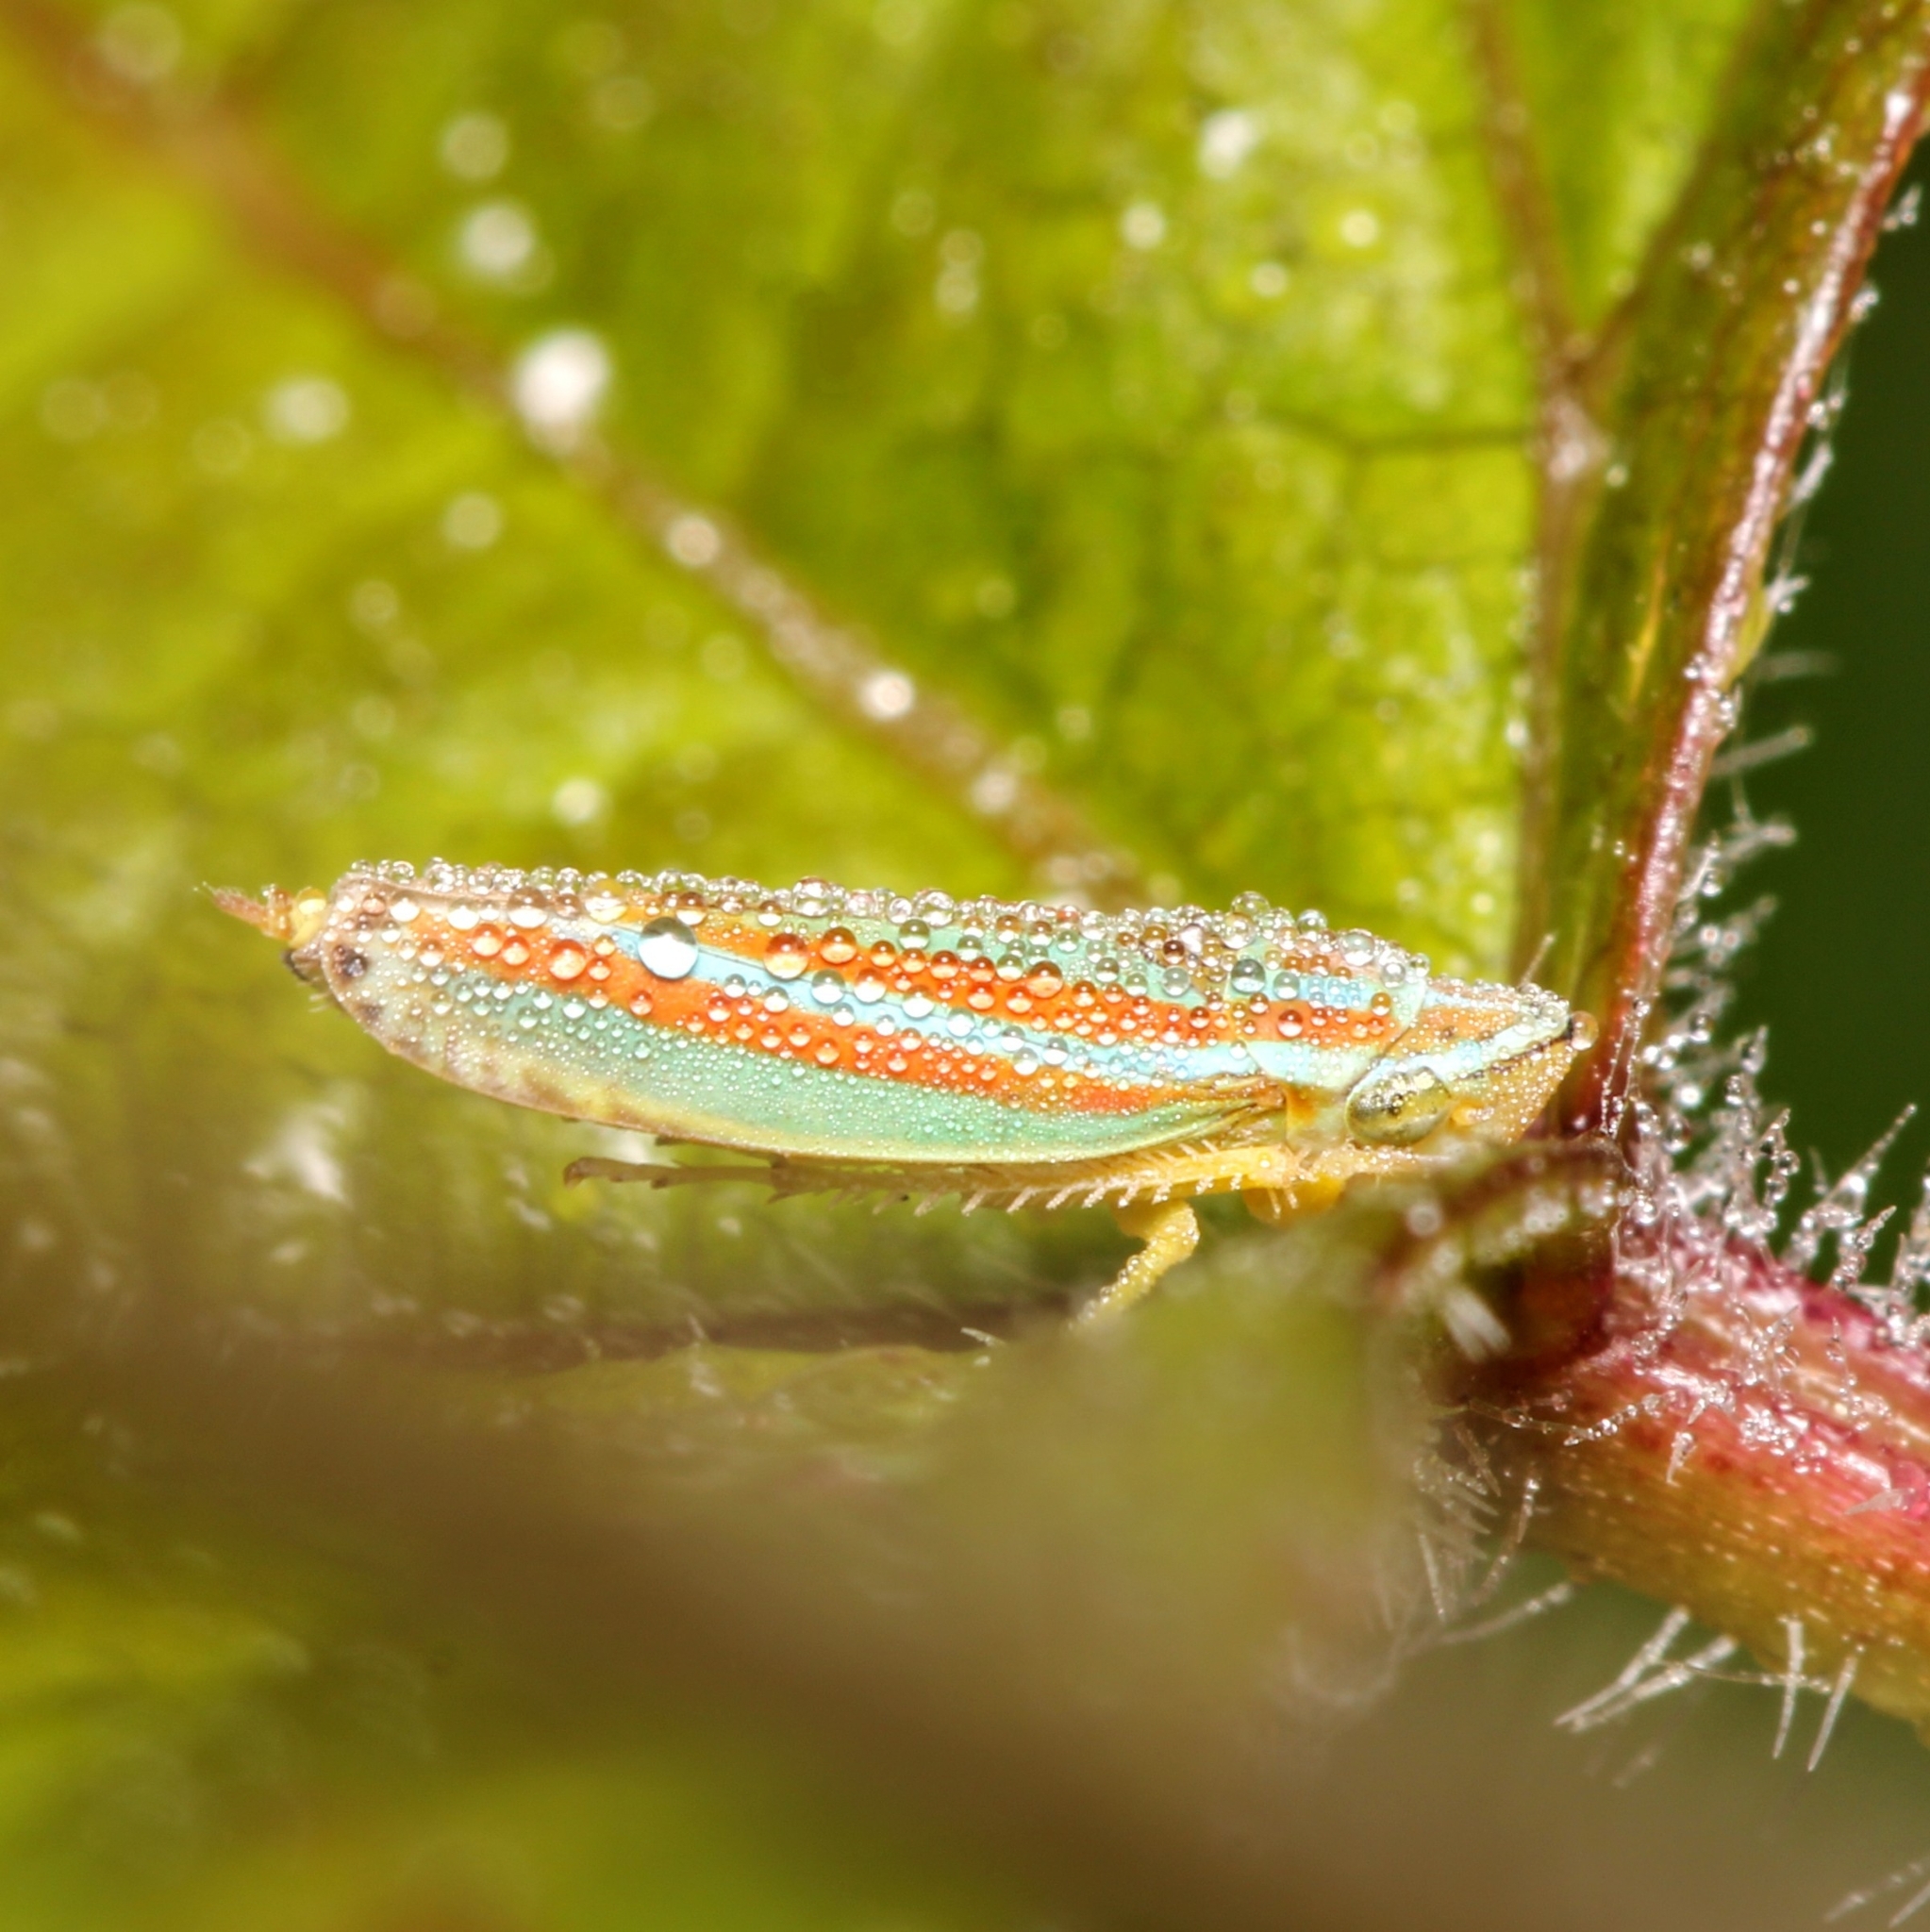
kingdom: Animalia
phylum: Arthropoda
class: Insecta
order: Hemiptera
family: Cicadellidae
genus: Graphocephala
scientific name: Graphocephala versuta
